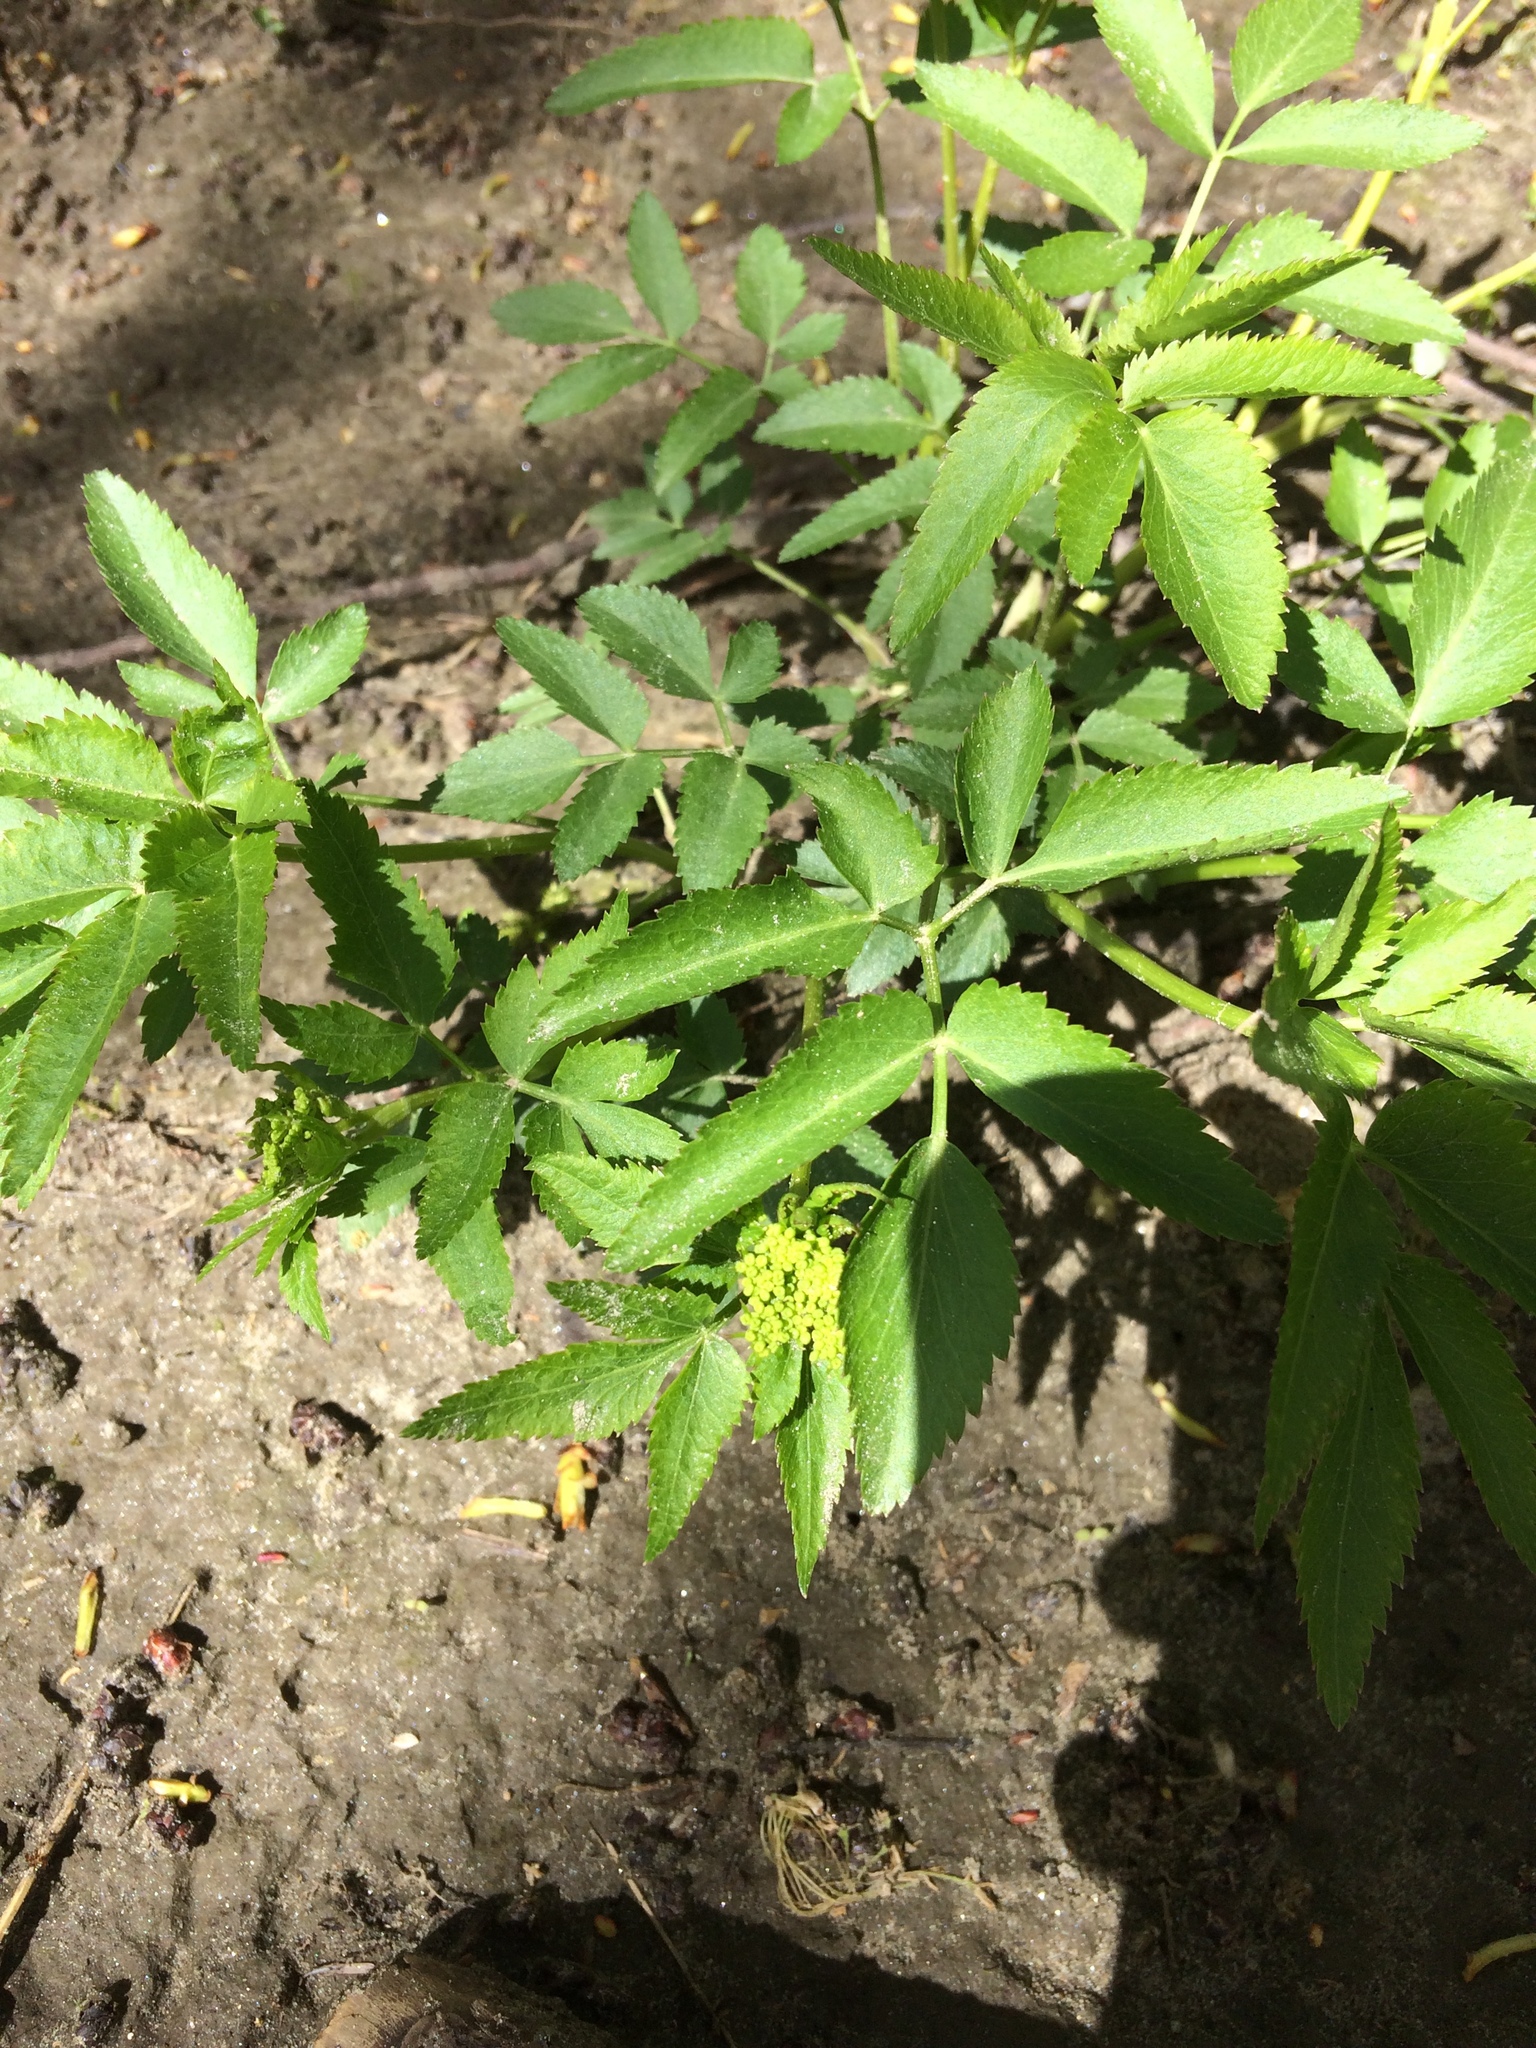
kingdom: Plantae
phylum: Tracheophyta
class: Magnoliopsida
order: Apiales
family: Apiaceae
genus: Zizia
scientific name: Zizia aurea
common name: Golden alexanders
